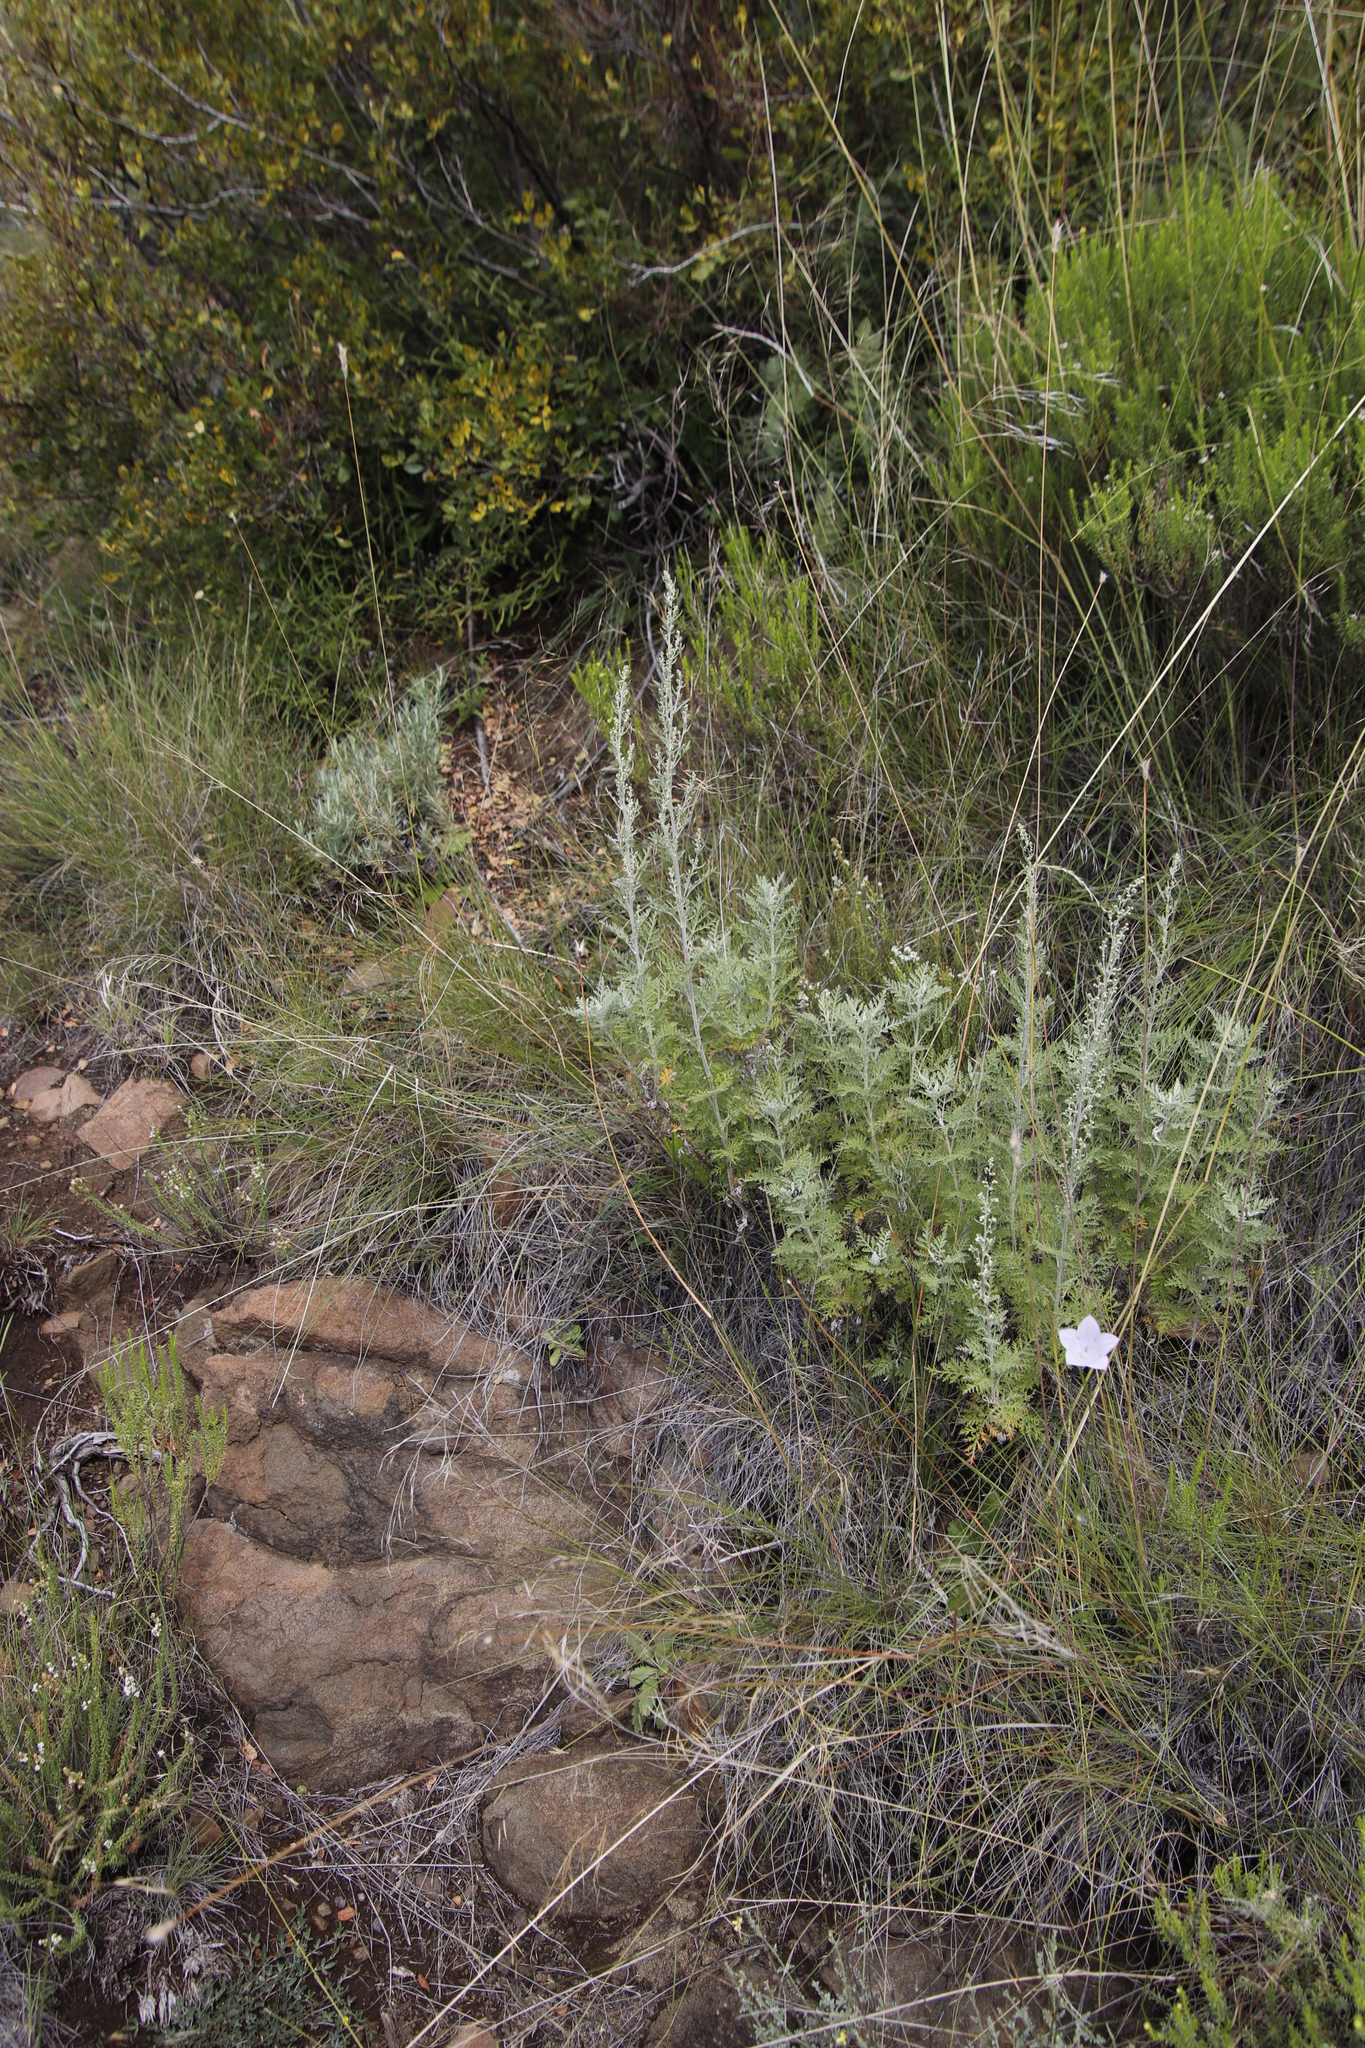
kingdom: Plantae
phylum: Tracheophyta
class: Magnoliopsida
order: Asterales
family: Asteraceae
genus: Artemisia
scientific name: Artemisia afra
